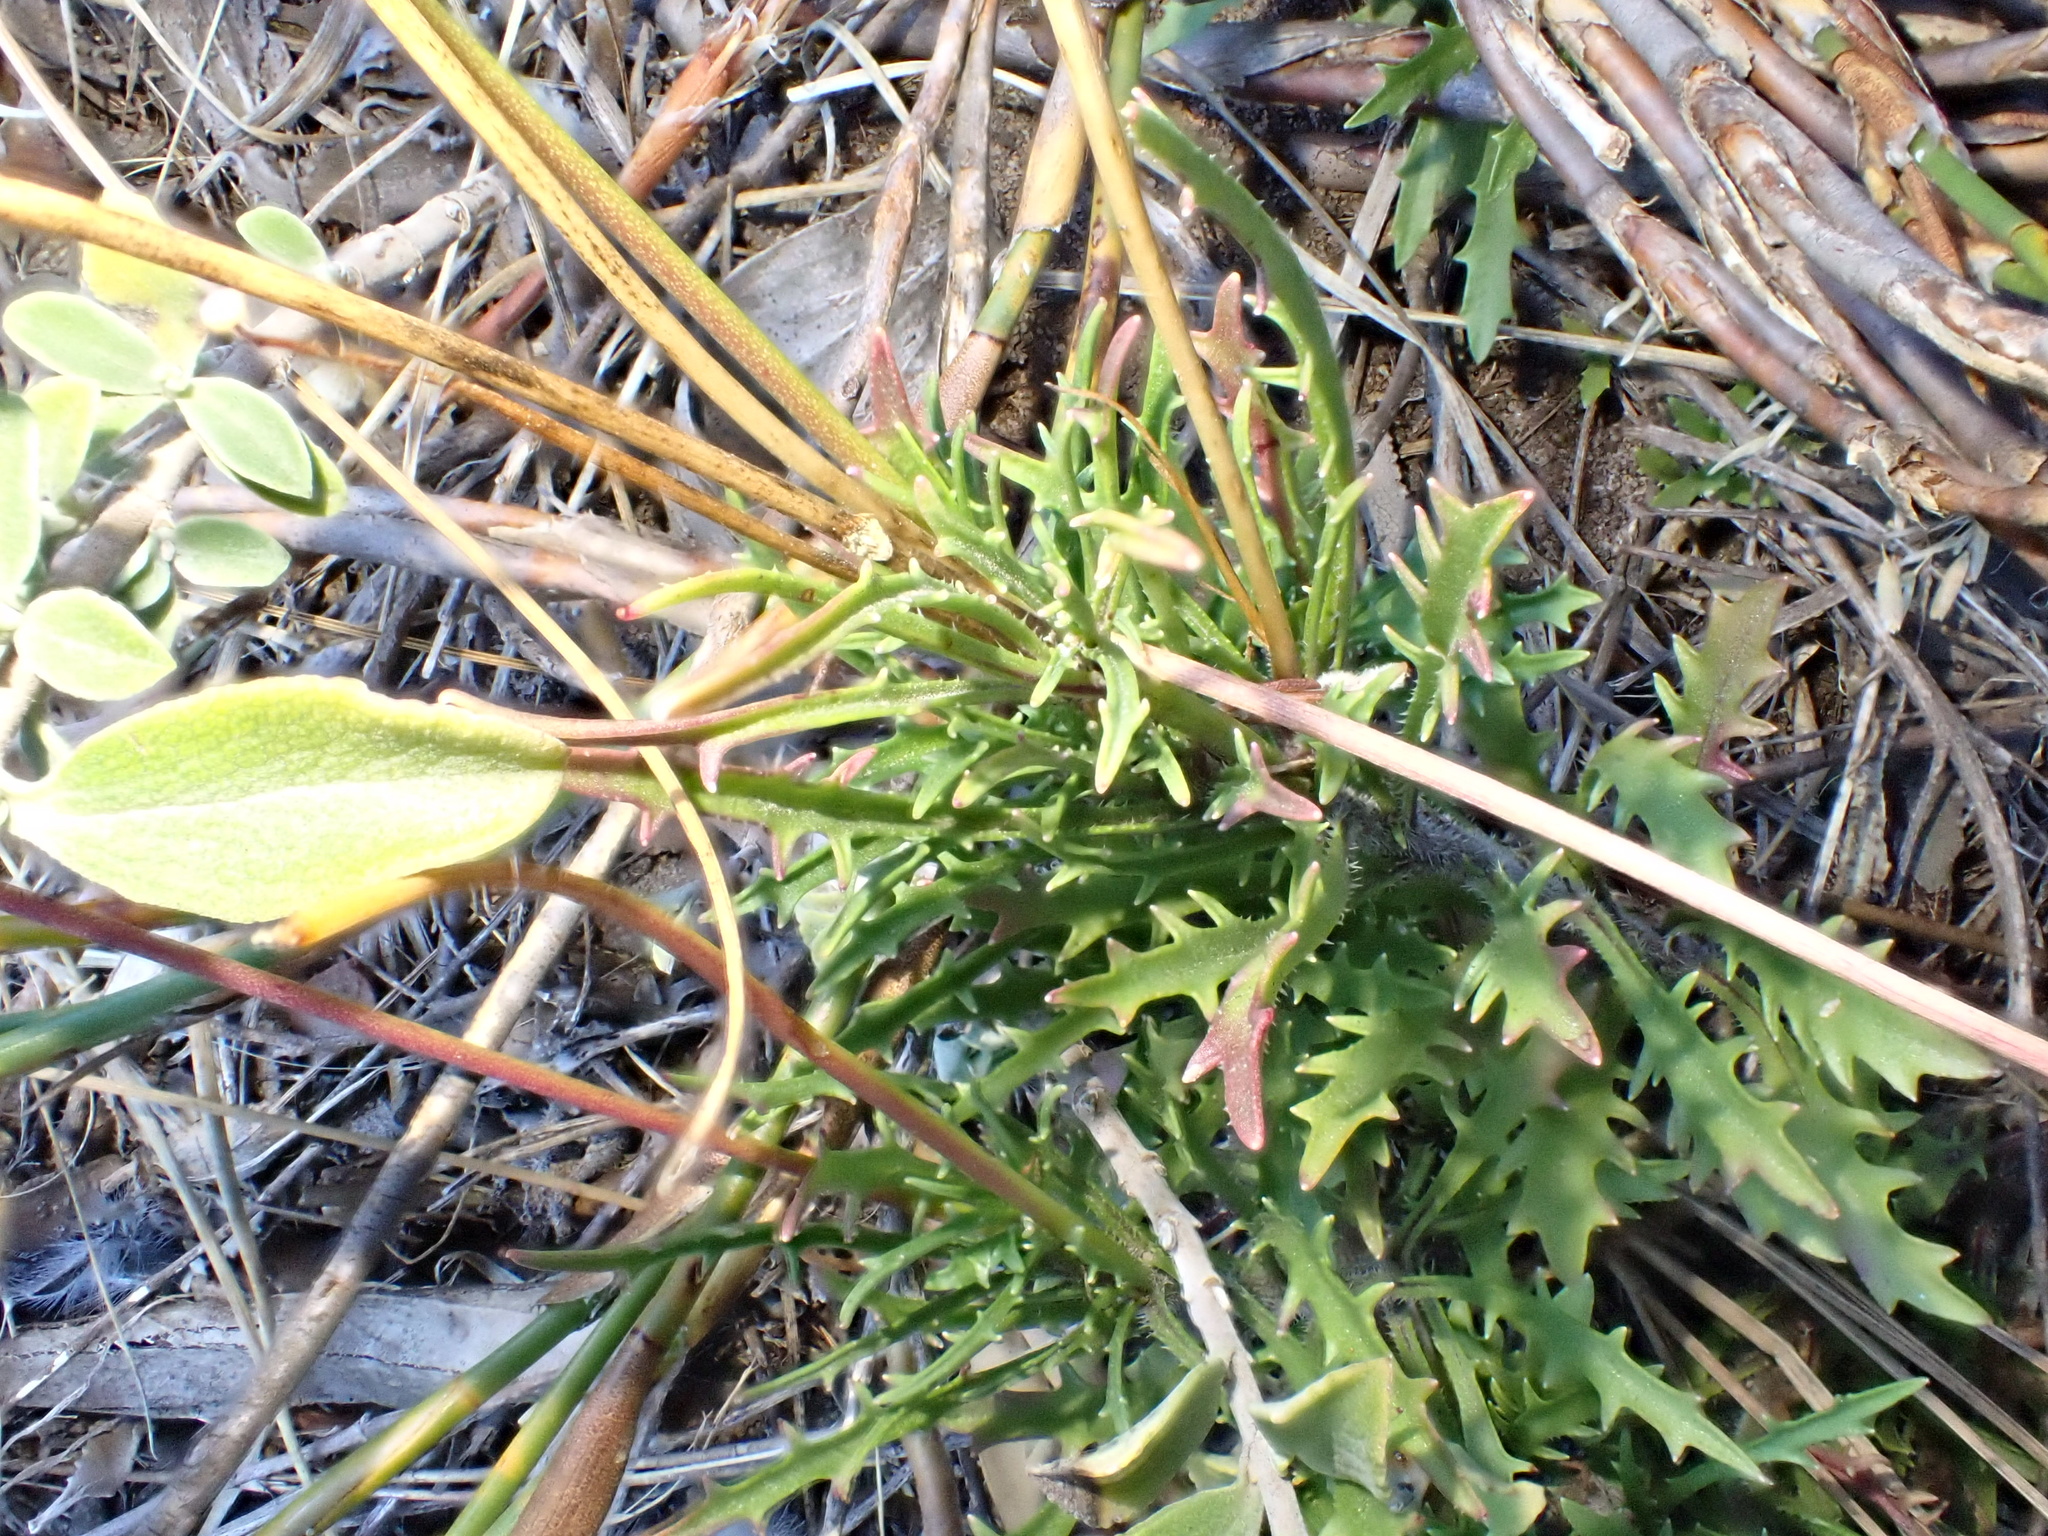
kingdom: Plantae
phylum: Tracheophyta
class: Magnoliopsida
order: Asterales
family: Campanulaceae
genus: Lobelia
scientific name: Lobelia coronopifolia
